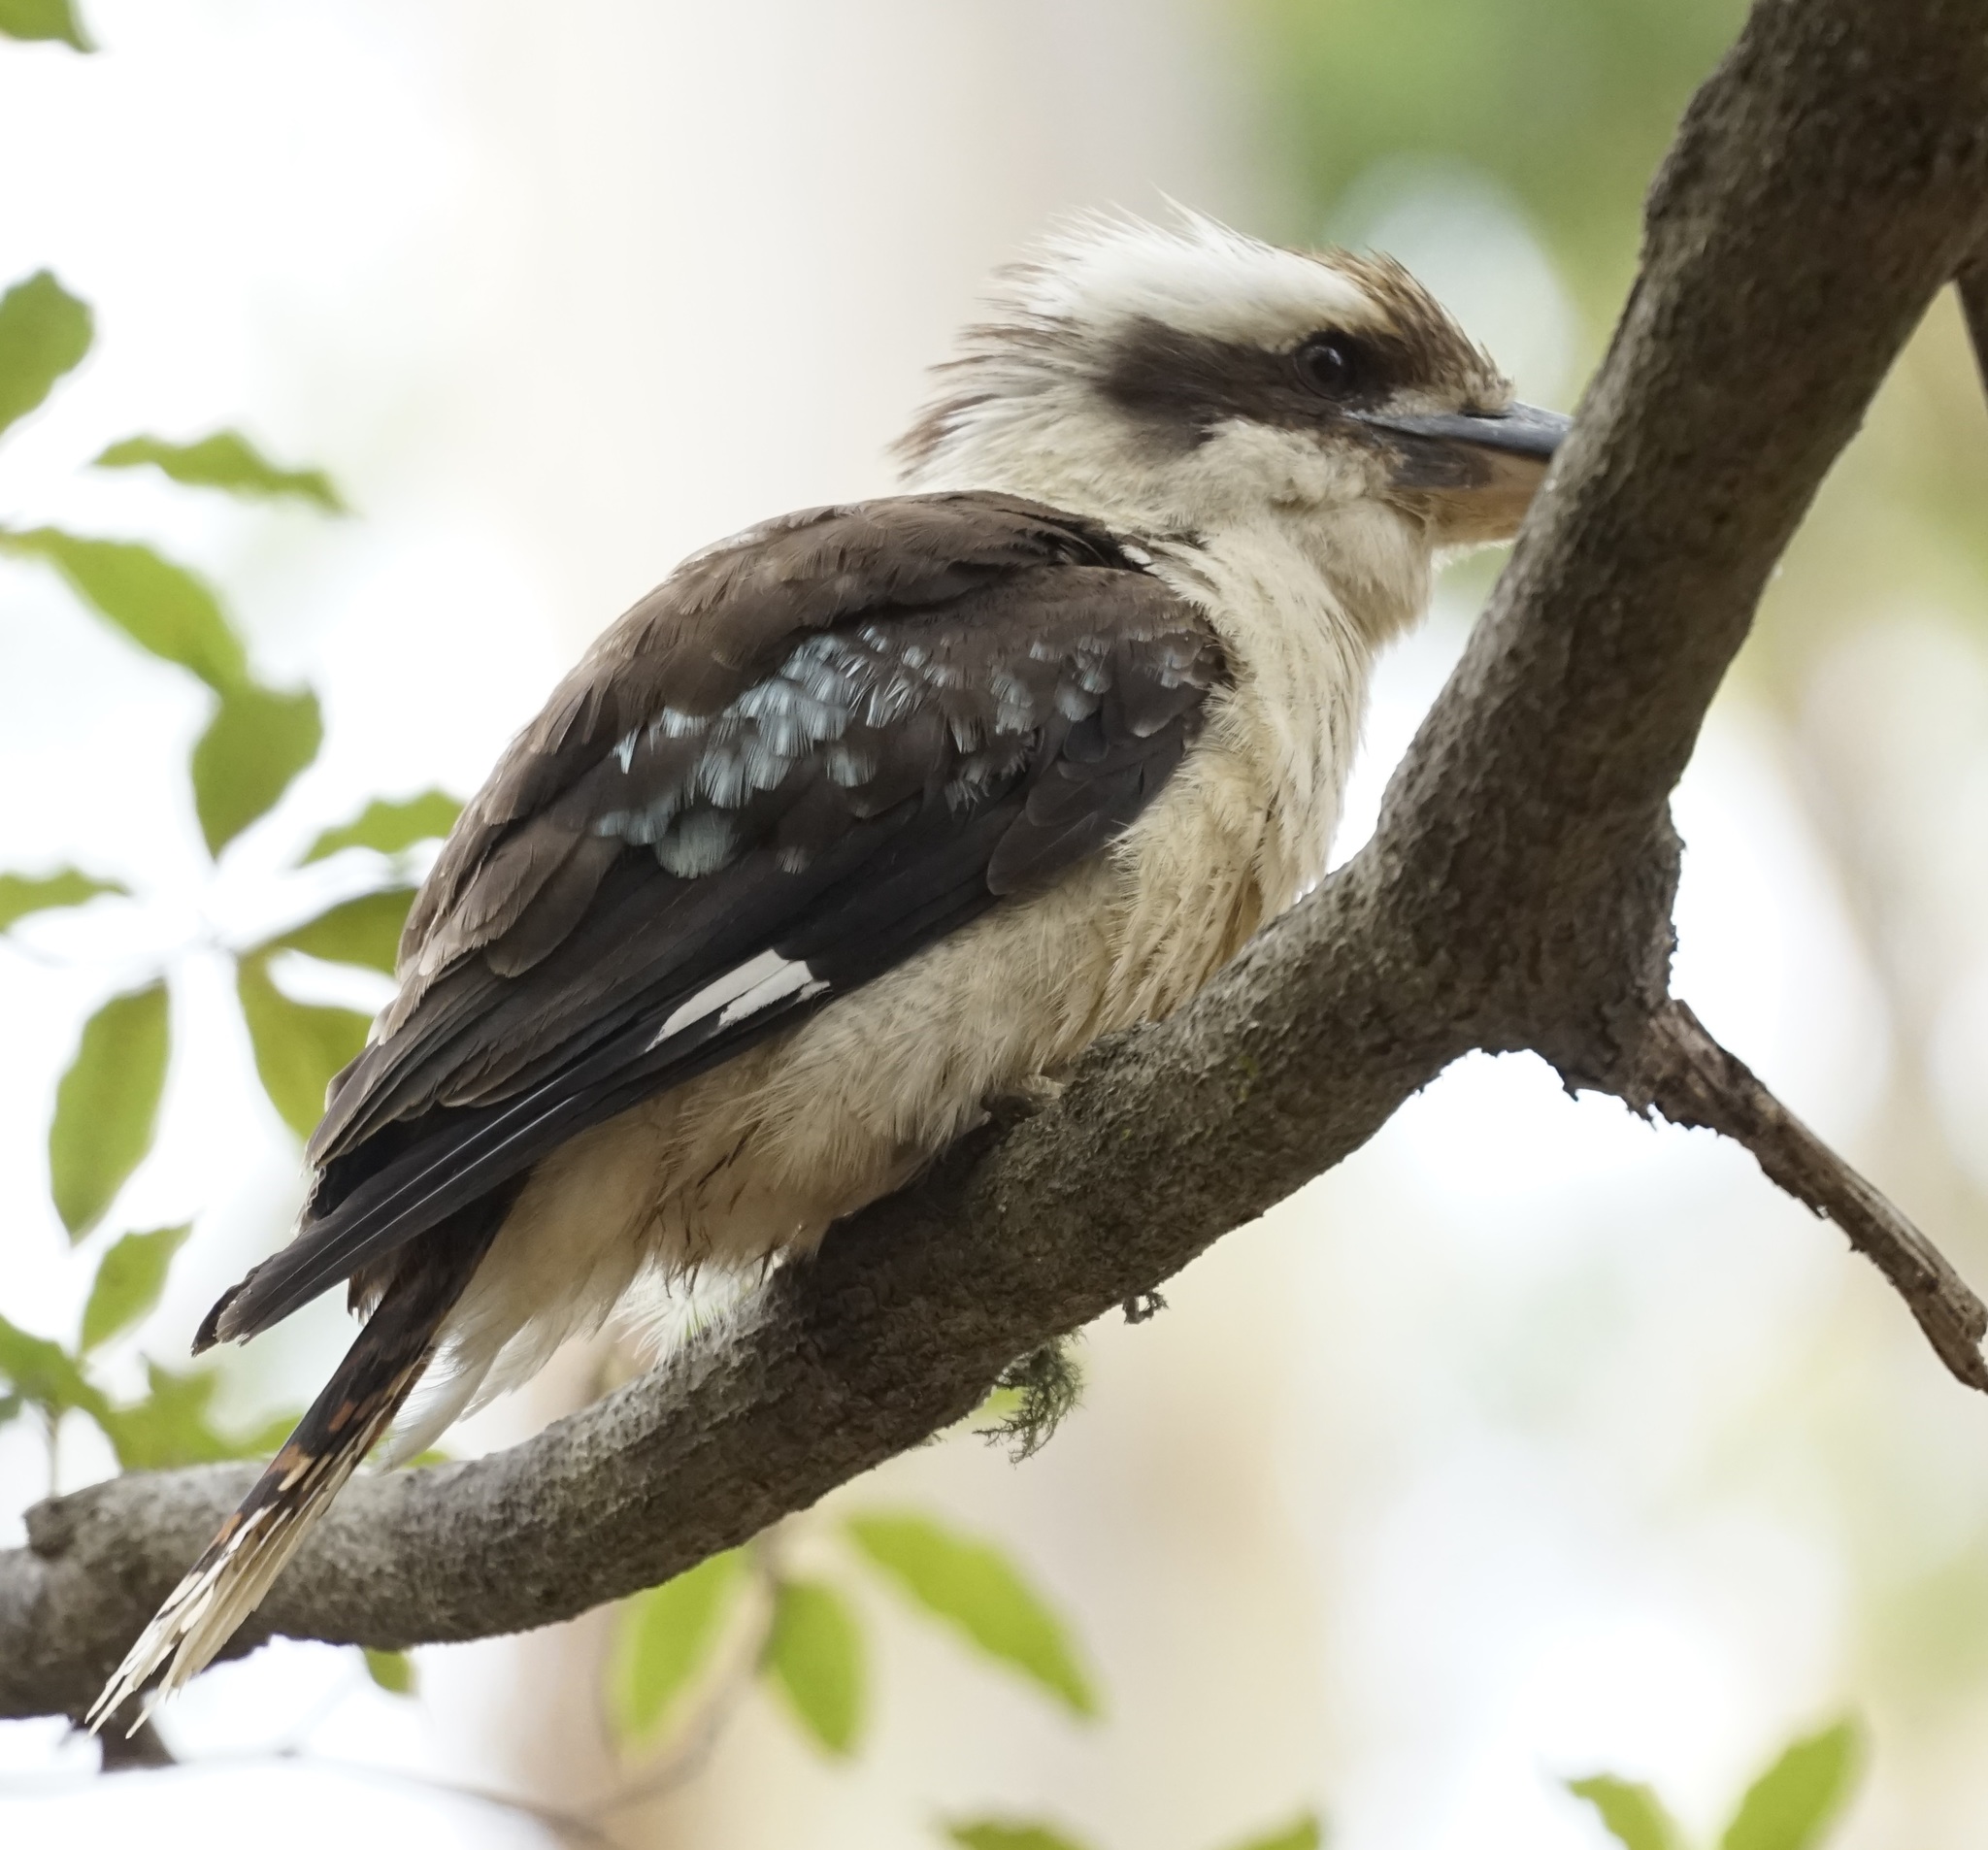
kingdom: Animalia
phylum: Chordata
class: Aves
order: Coraciiformes
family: Alcedinidae
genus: Dacelo
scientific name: Dacelo novaeguineae
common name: Laughing kookaburra
